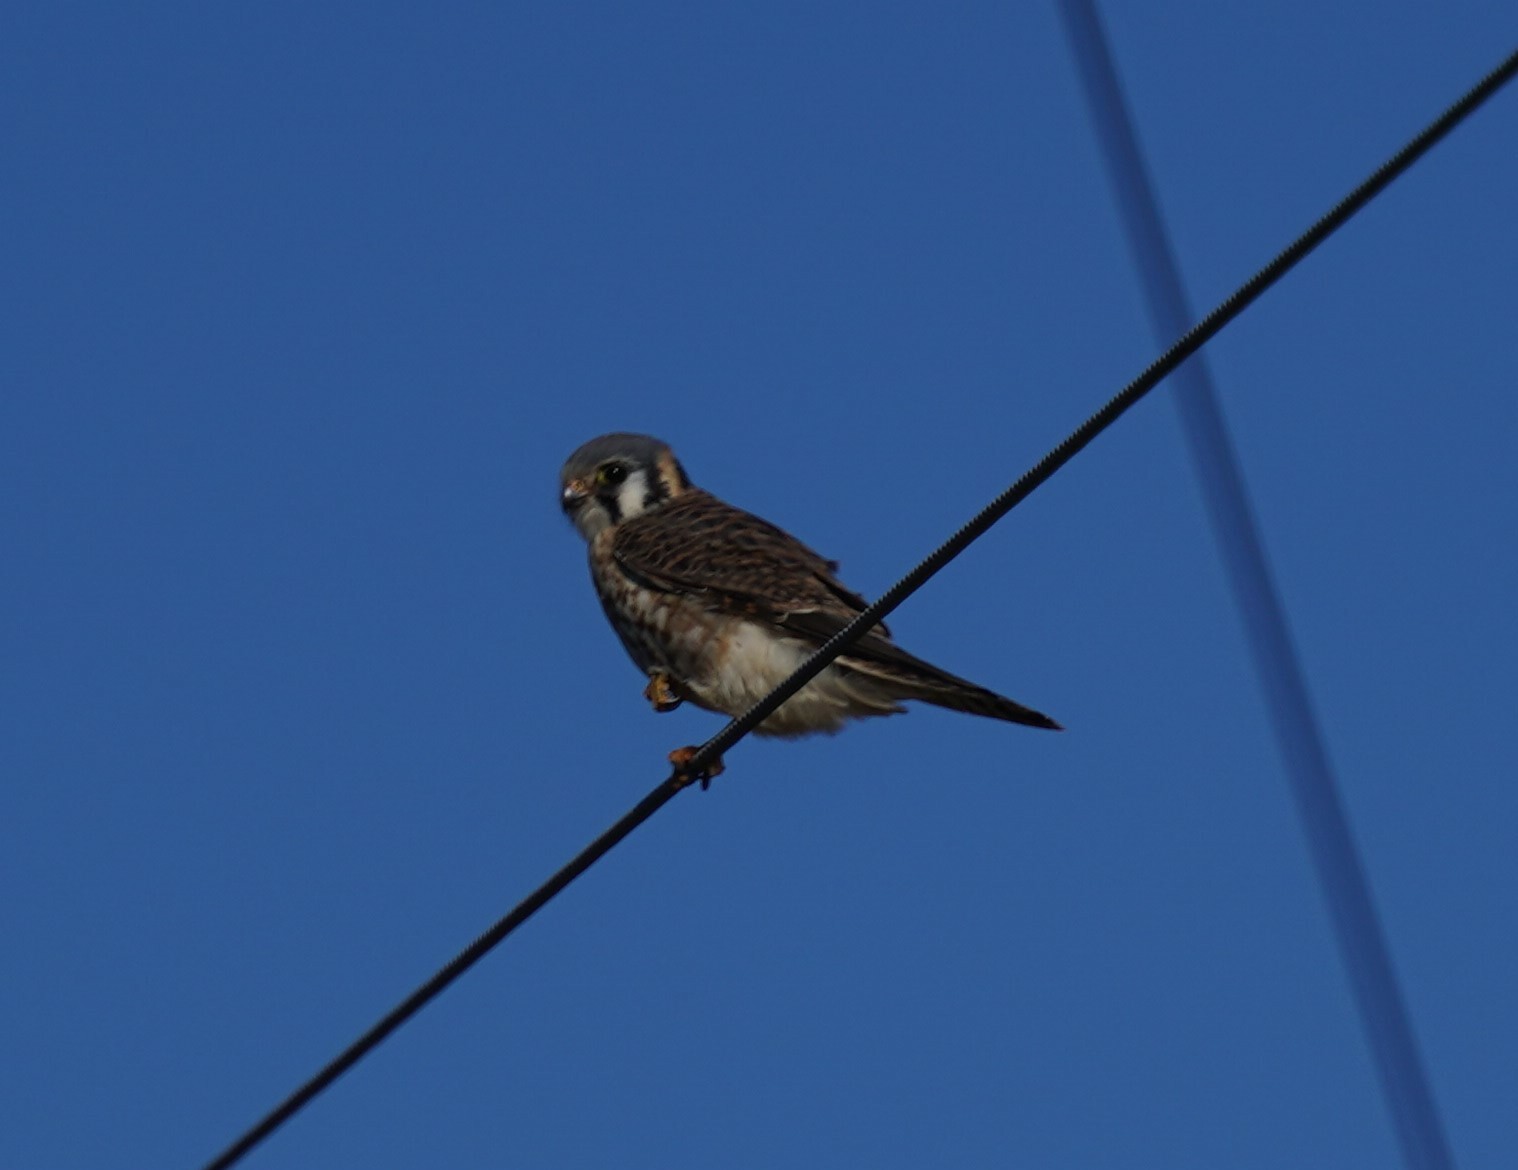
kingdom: Animalia
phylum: Chordata
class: Aves
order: Falconiformes
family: Falconidae
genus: Falco
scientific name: Falco sparverius
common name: American kestrel
